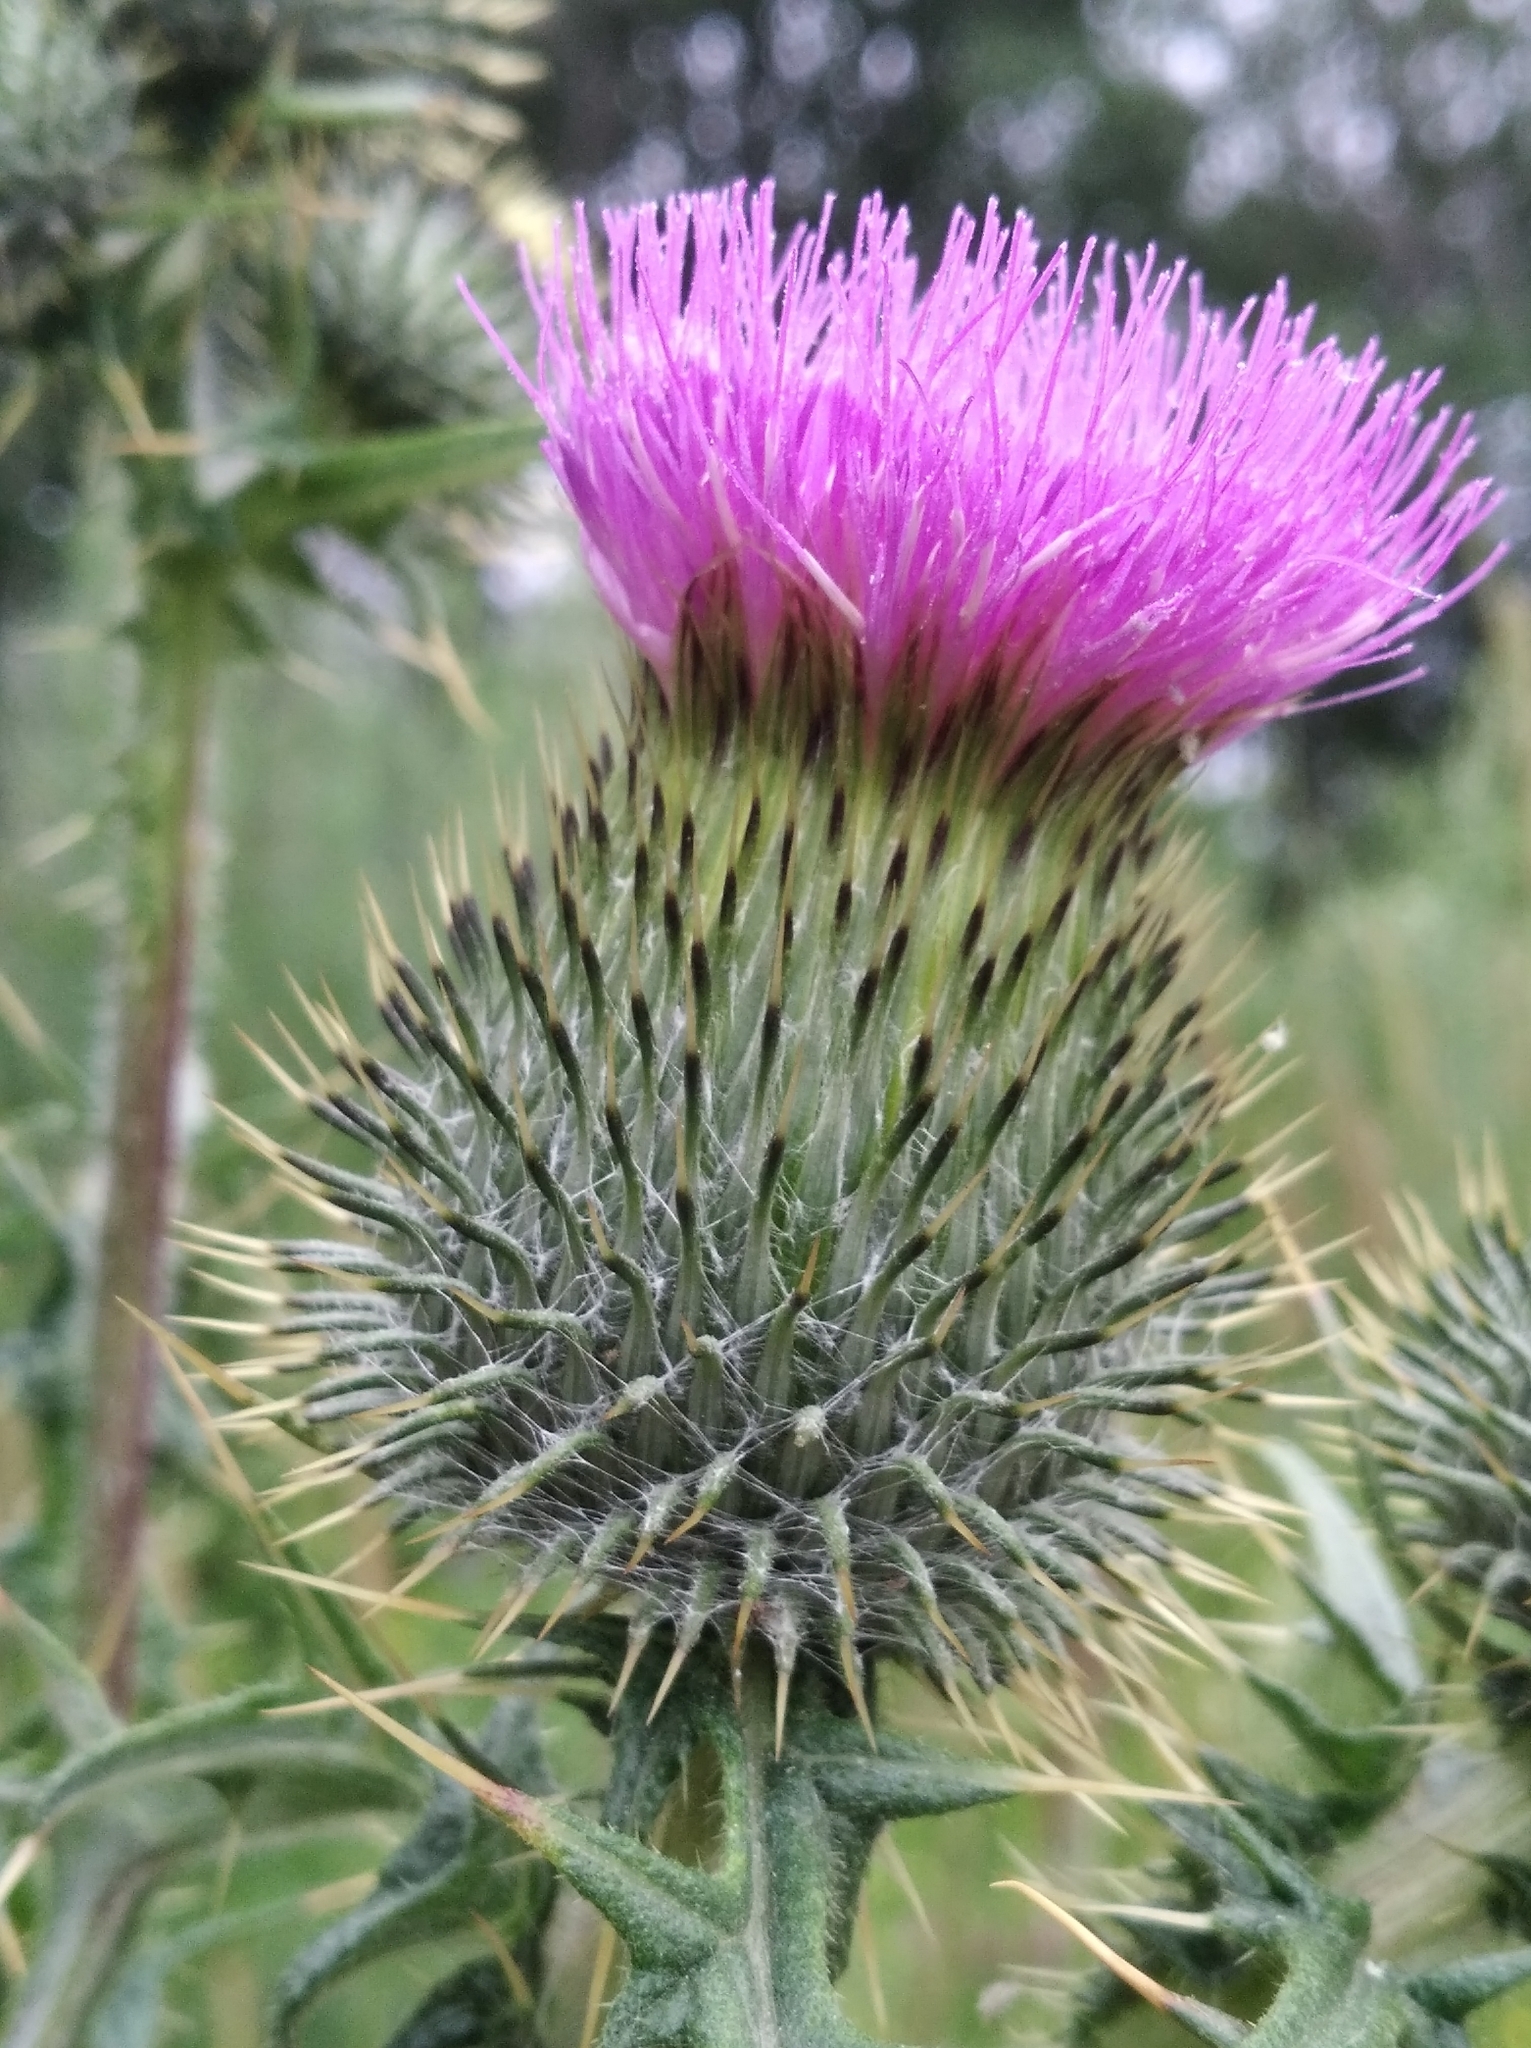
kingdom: Plantae
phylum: Tracheophyta
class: Magnoliopsida
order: Asterales
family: Asteraceae
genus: Cirsium
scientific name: Cirsium vulgare
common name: Bull thistle
